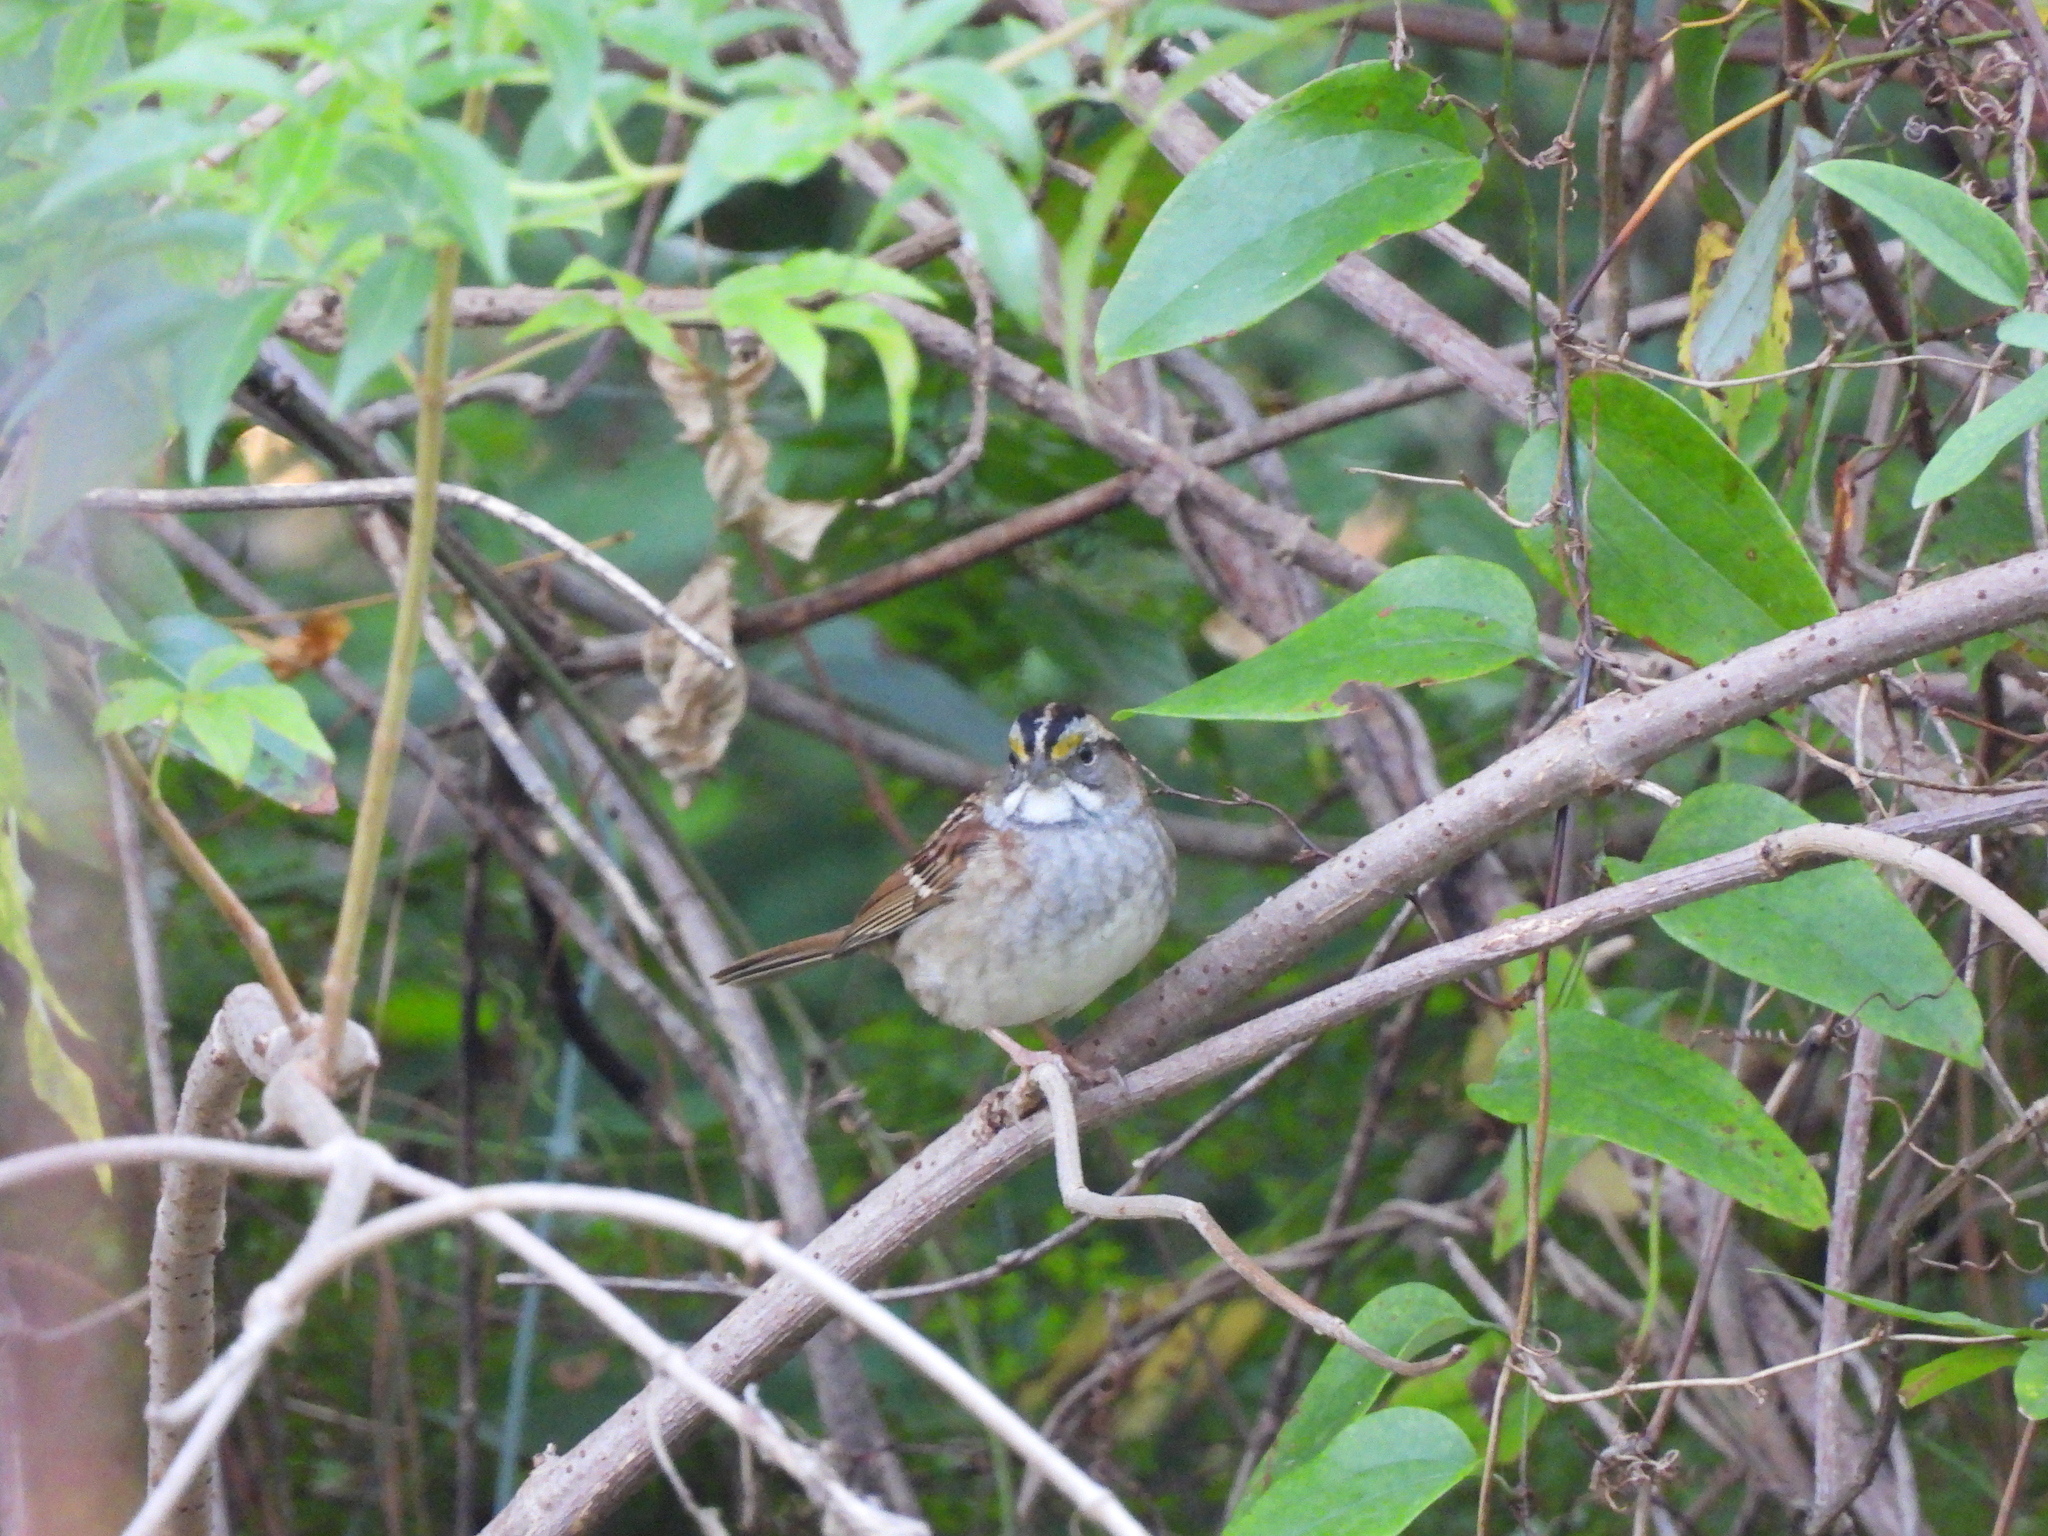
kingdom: Animalia
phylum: Chordata
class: Aves
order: Passeriformes
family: Passerellidae
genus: Zonotrichia
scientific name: Zonotrichia albicollis
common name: White-throated sparrow
